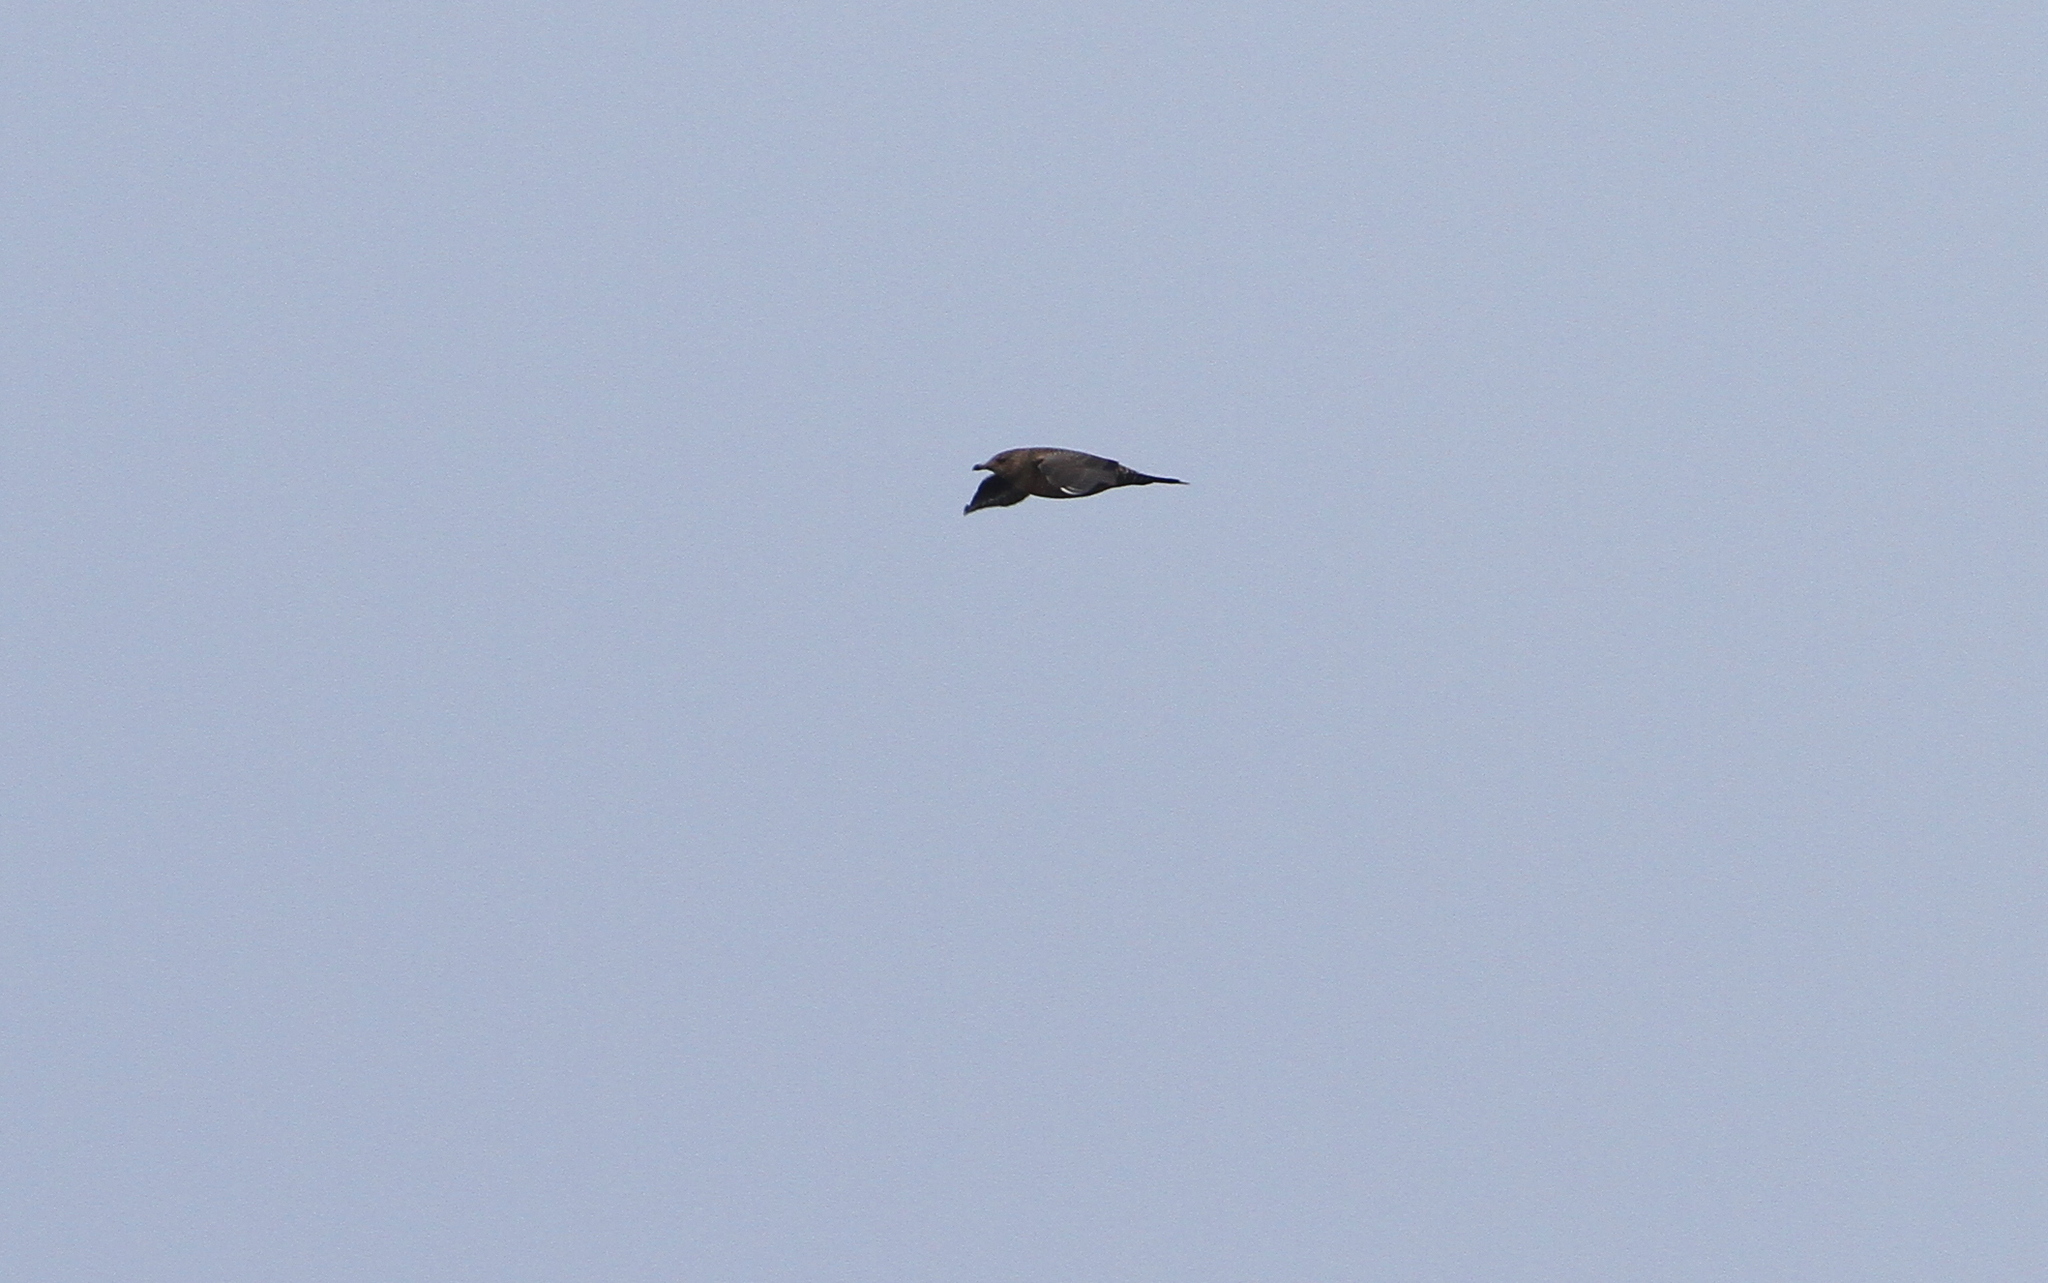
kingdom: Animalia
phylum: Chordata
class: Aves
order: Charadriiformes
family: Stercorariidae
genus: Stercorarius
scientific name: Stercorarius longicaudus
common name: Long-tailed jaeger
